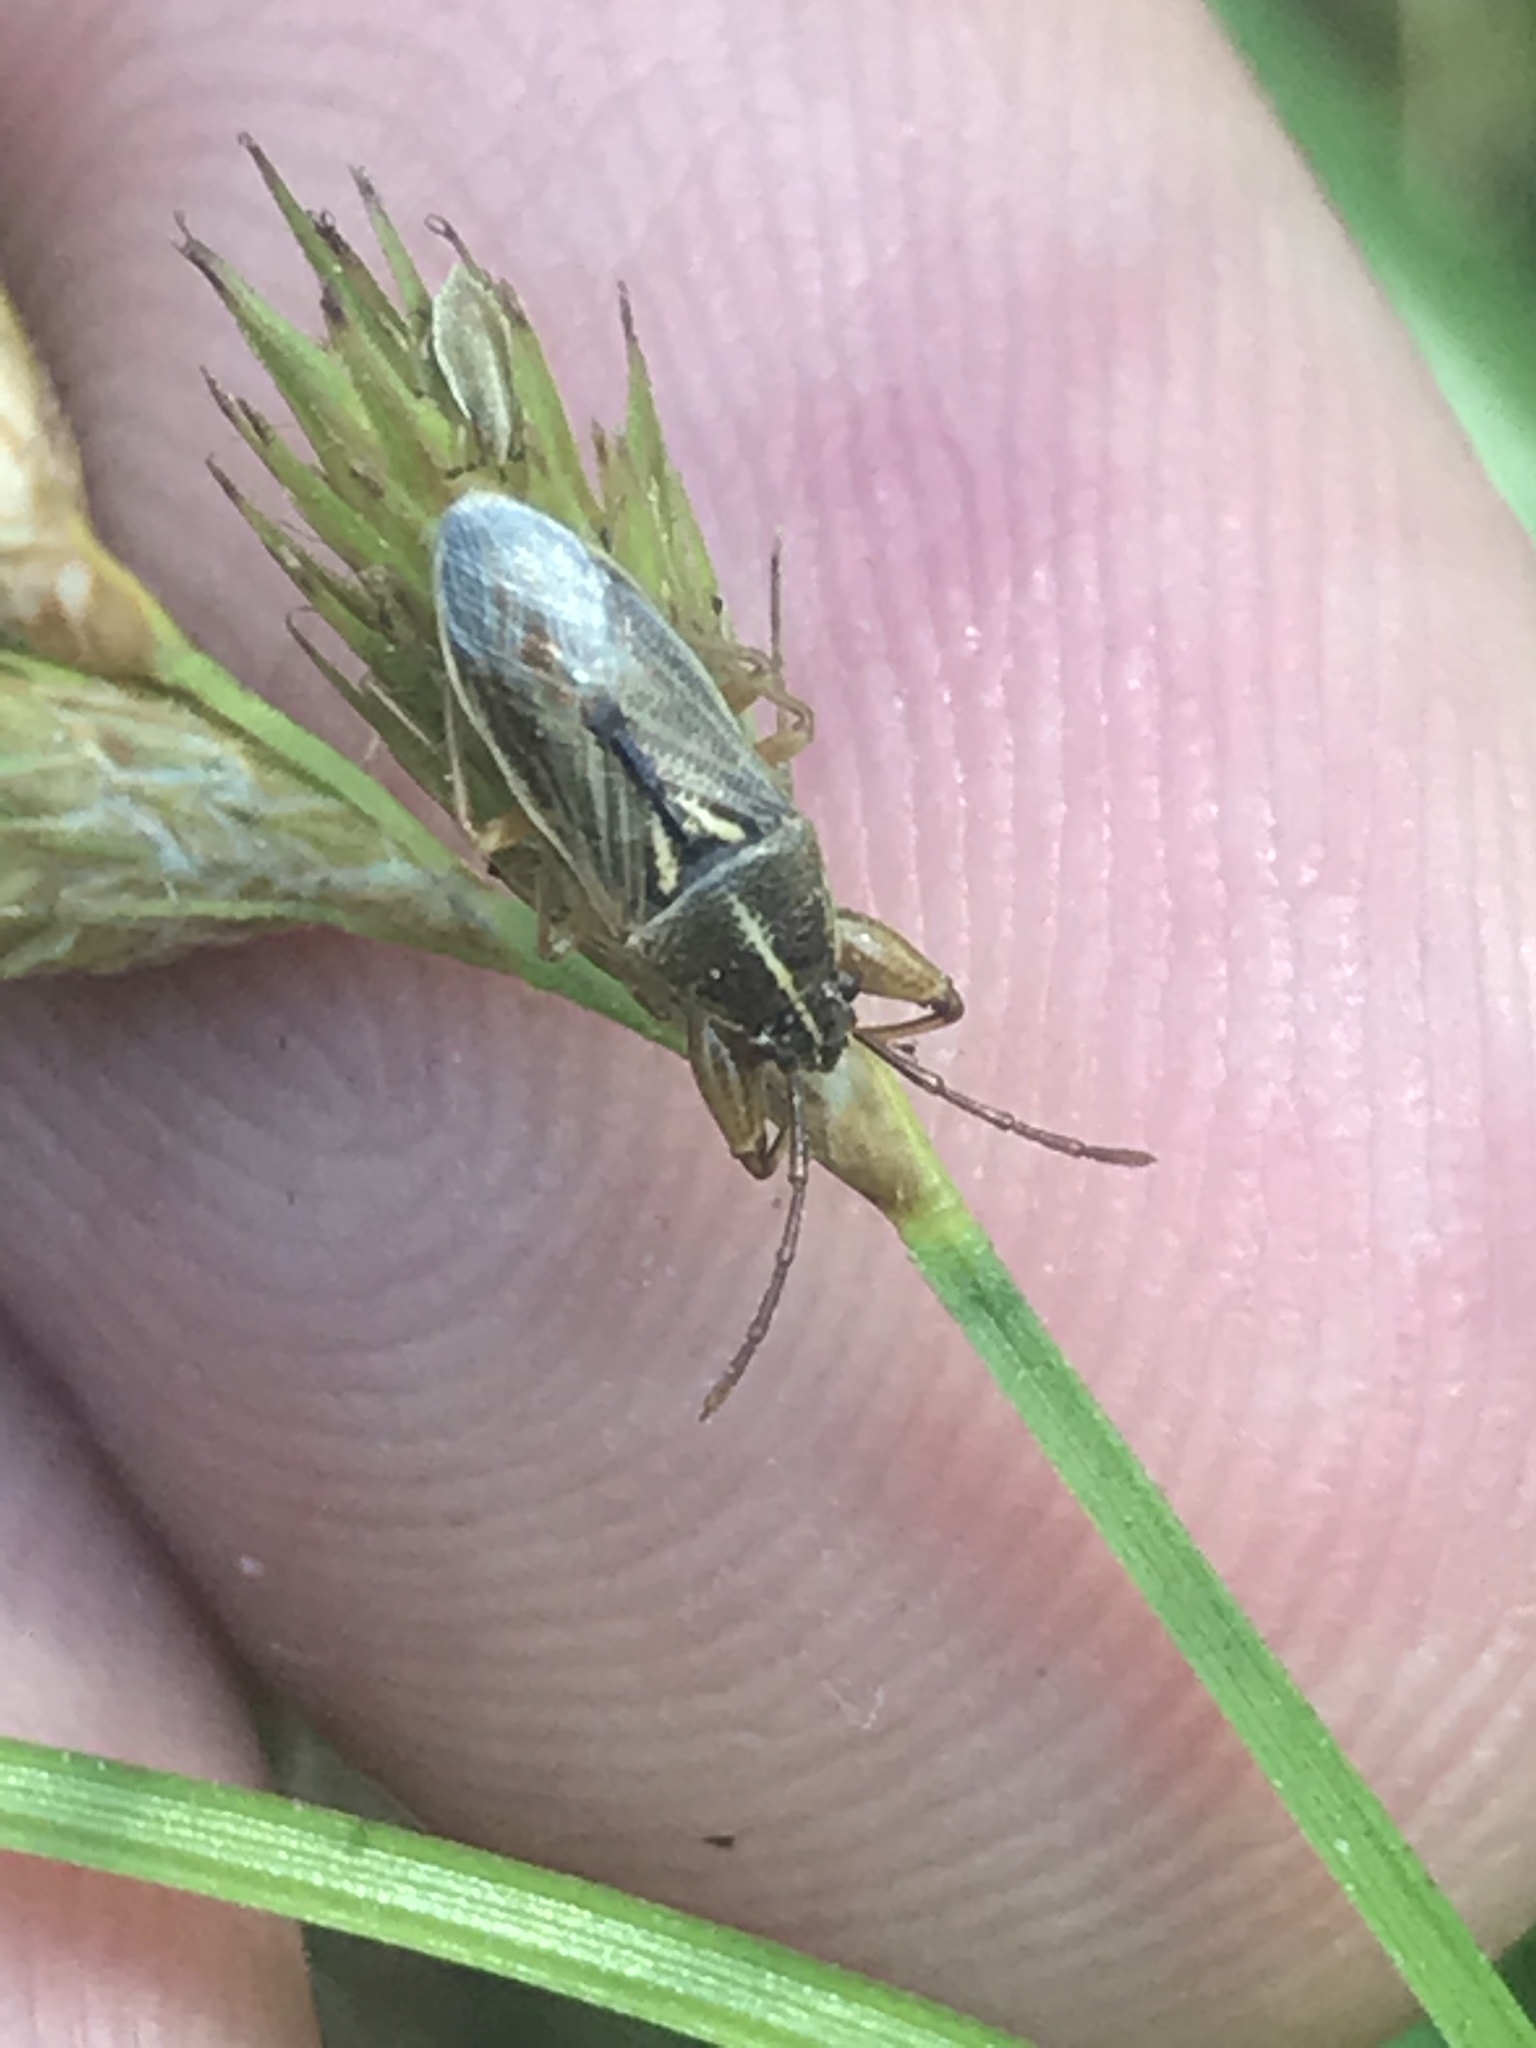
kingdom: Animalia
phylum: Arthropoda
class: Insecta
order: Hemiptera
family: Pachygronthidae
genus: Oedancala
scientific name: Oedancala dorsalis
